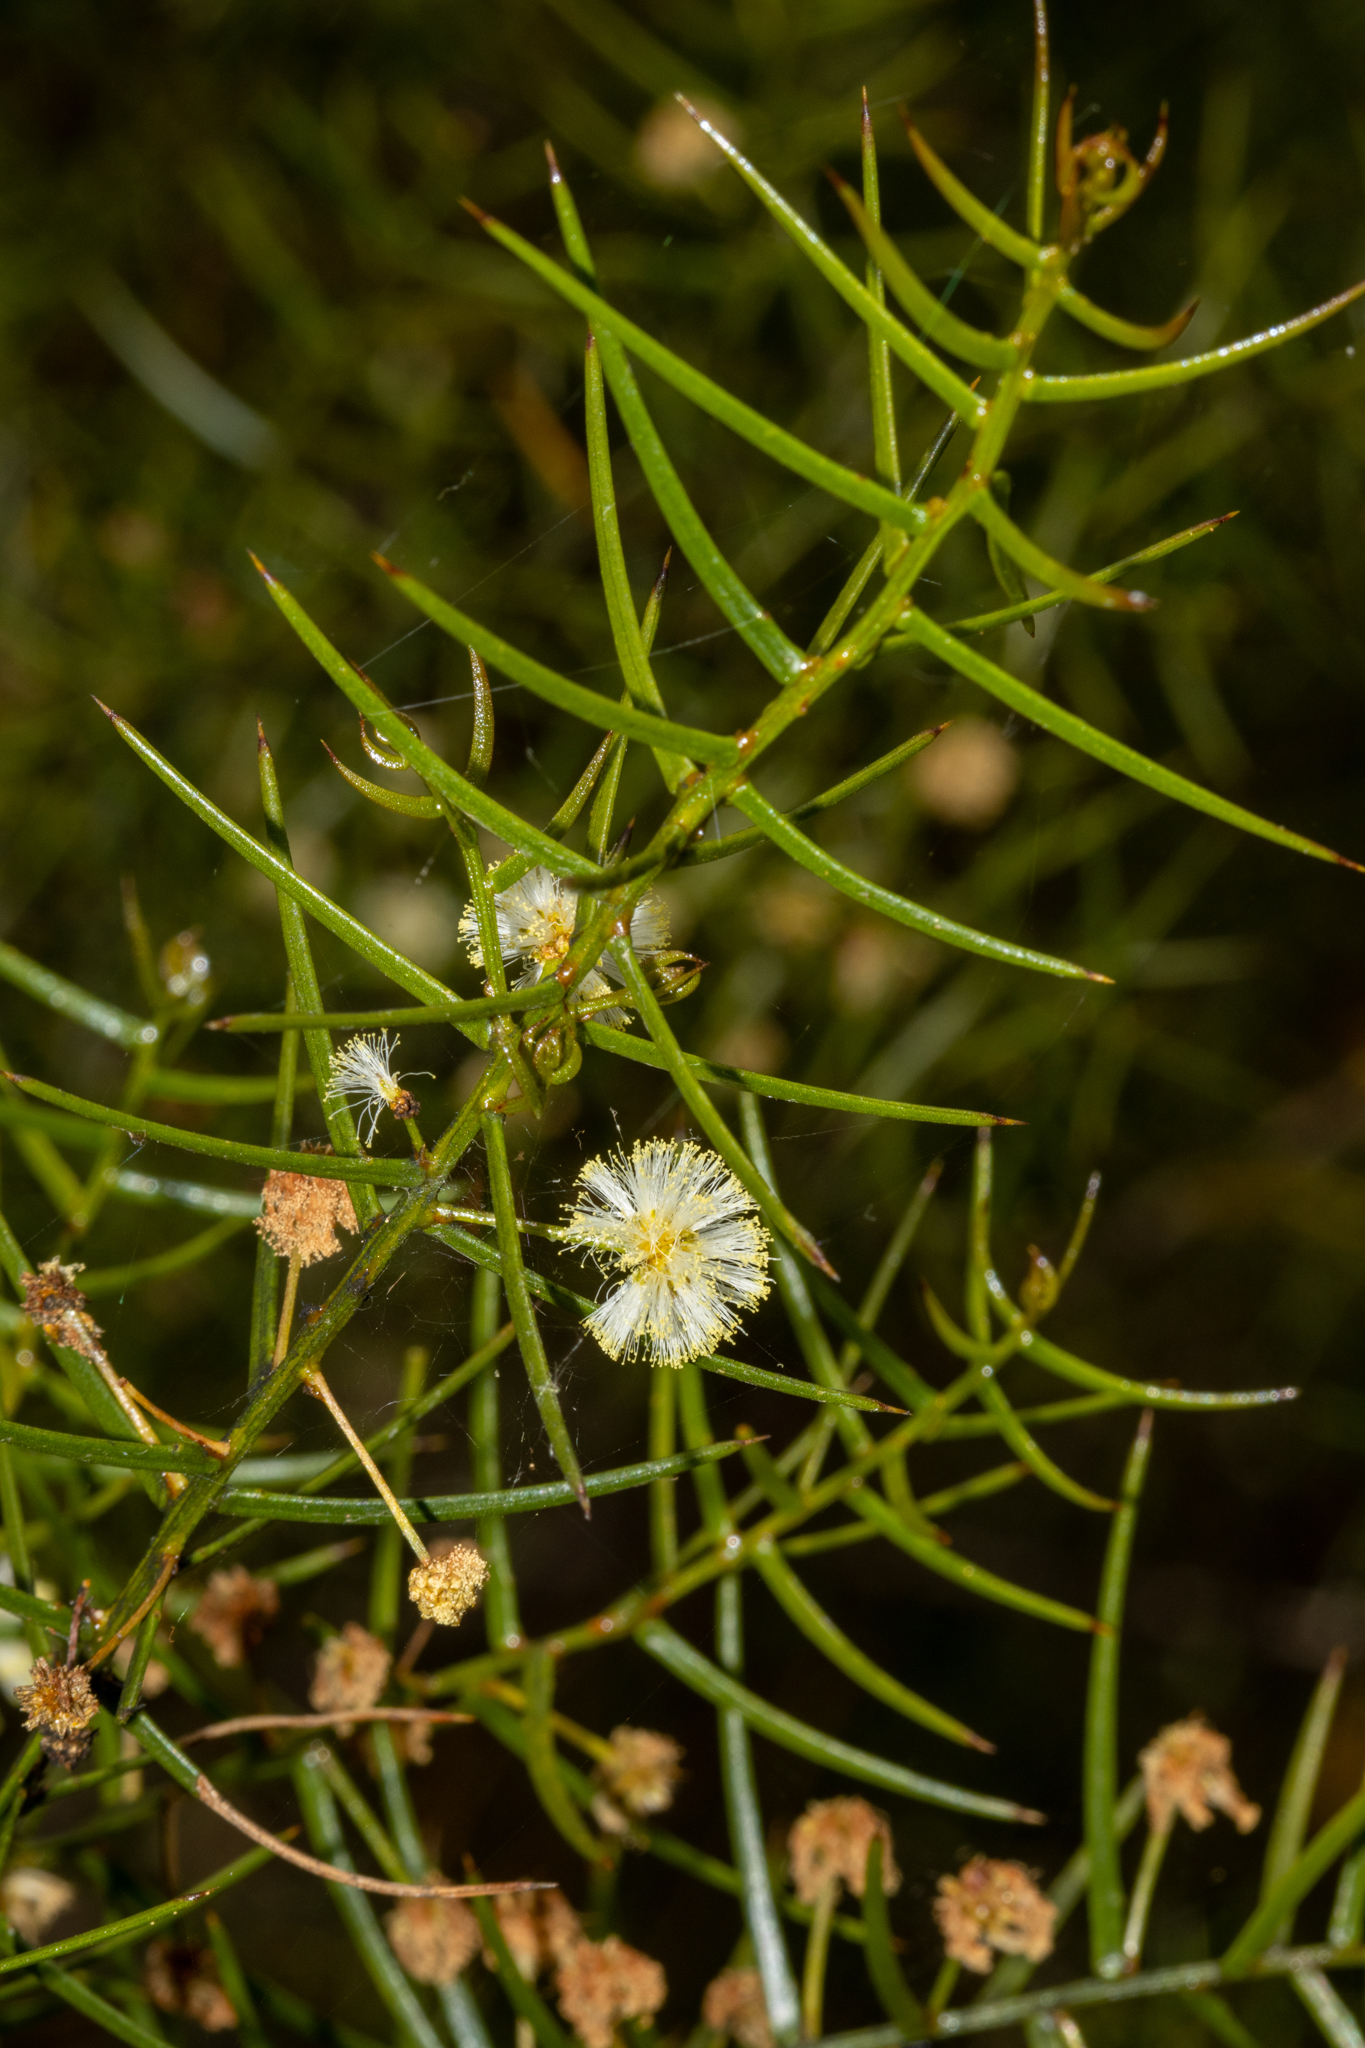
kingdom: Plantae
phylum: Tracheophyta
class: Magnoliopsida
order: Fabales
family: Fabaceae
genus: Acacia
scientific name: Acacia rupicola
